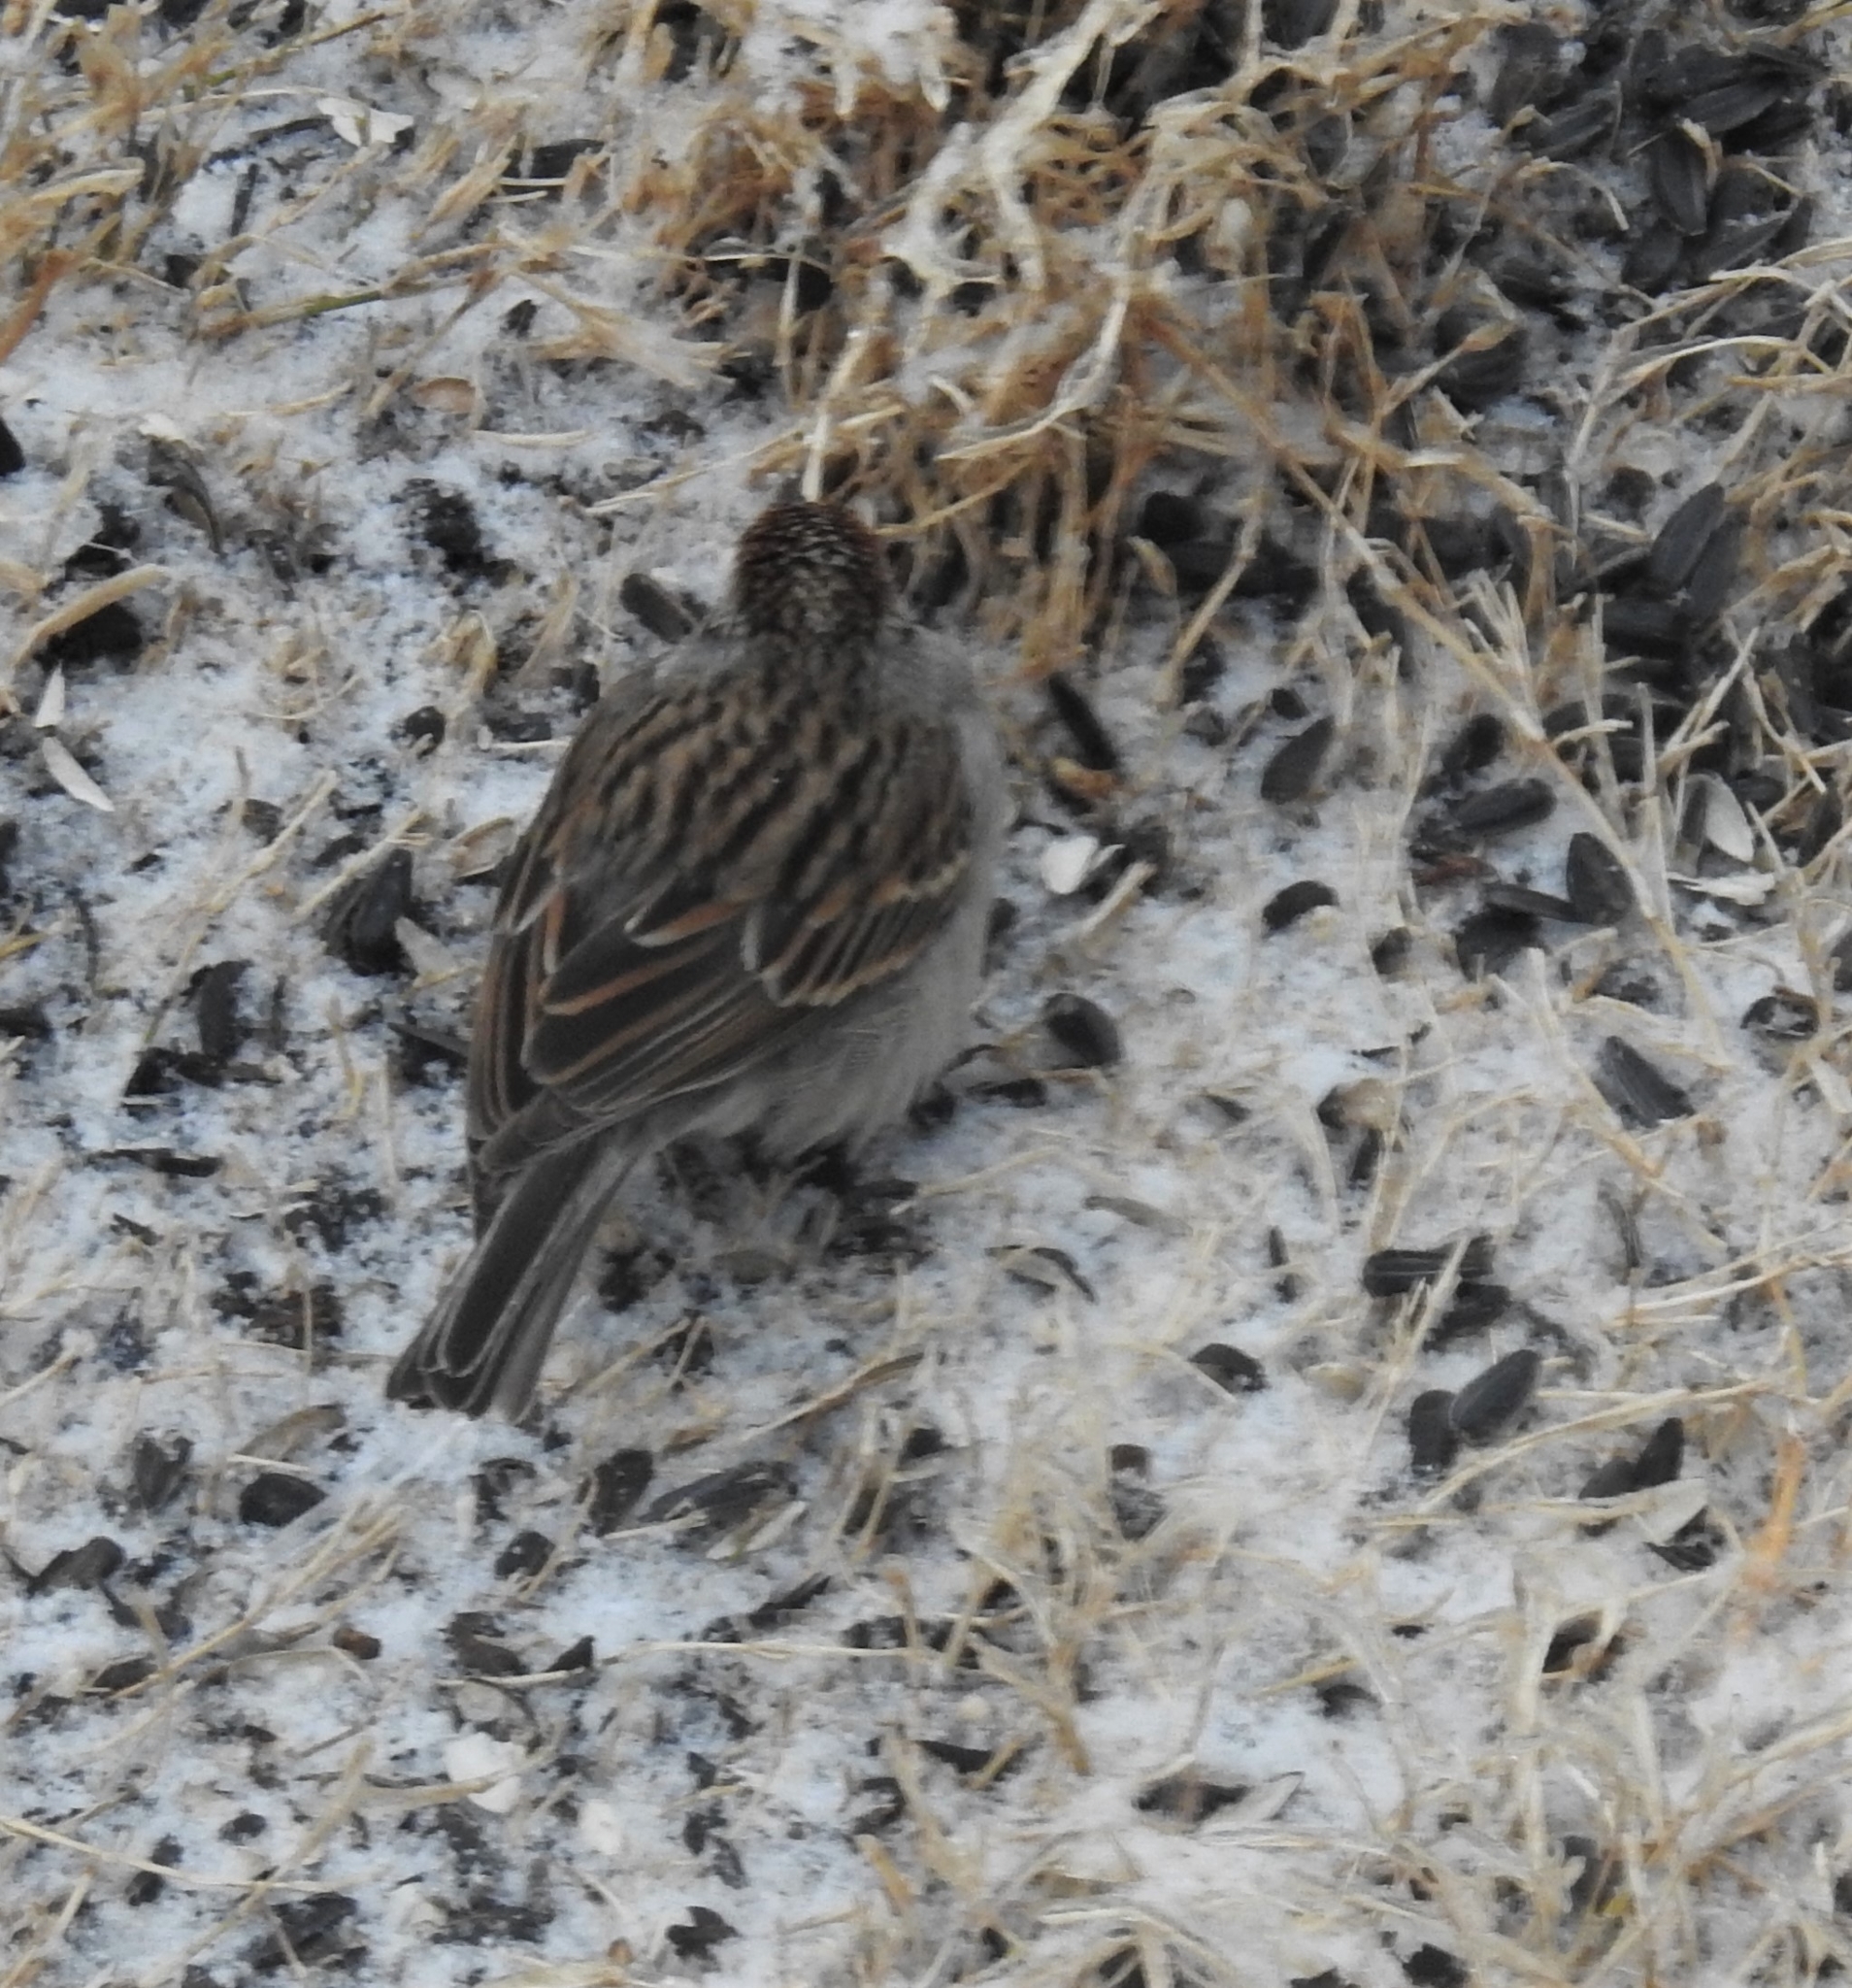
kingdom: Animalia
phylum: Chordata
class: Aves
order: Passeriformes
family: Passerellidae
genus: Spizella
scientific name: Spizella passerina
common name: Chipping sparrow
